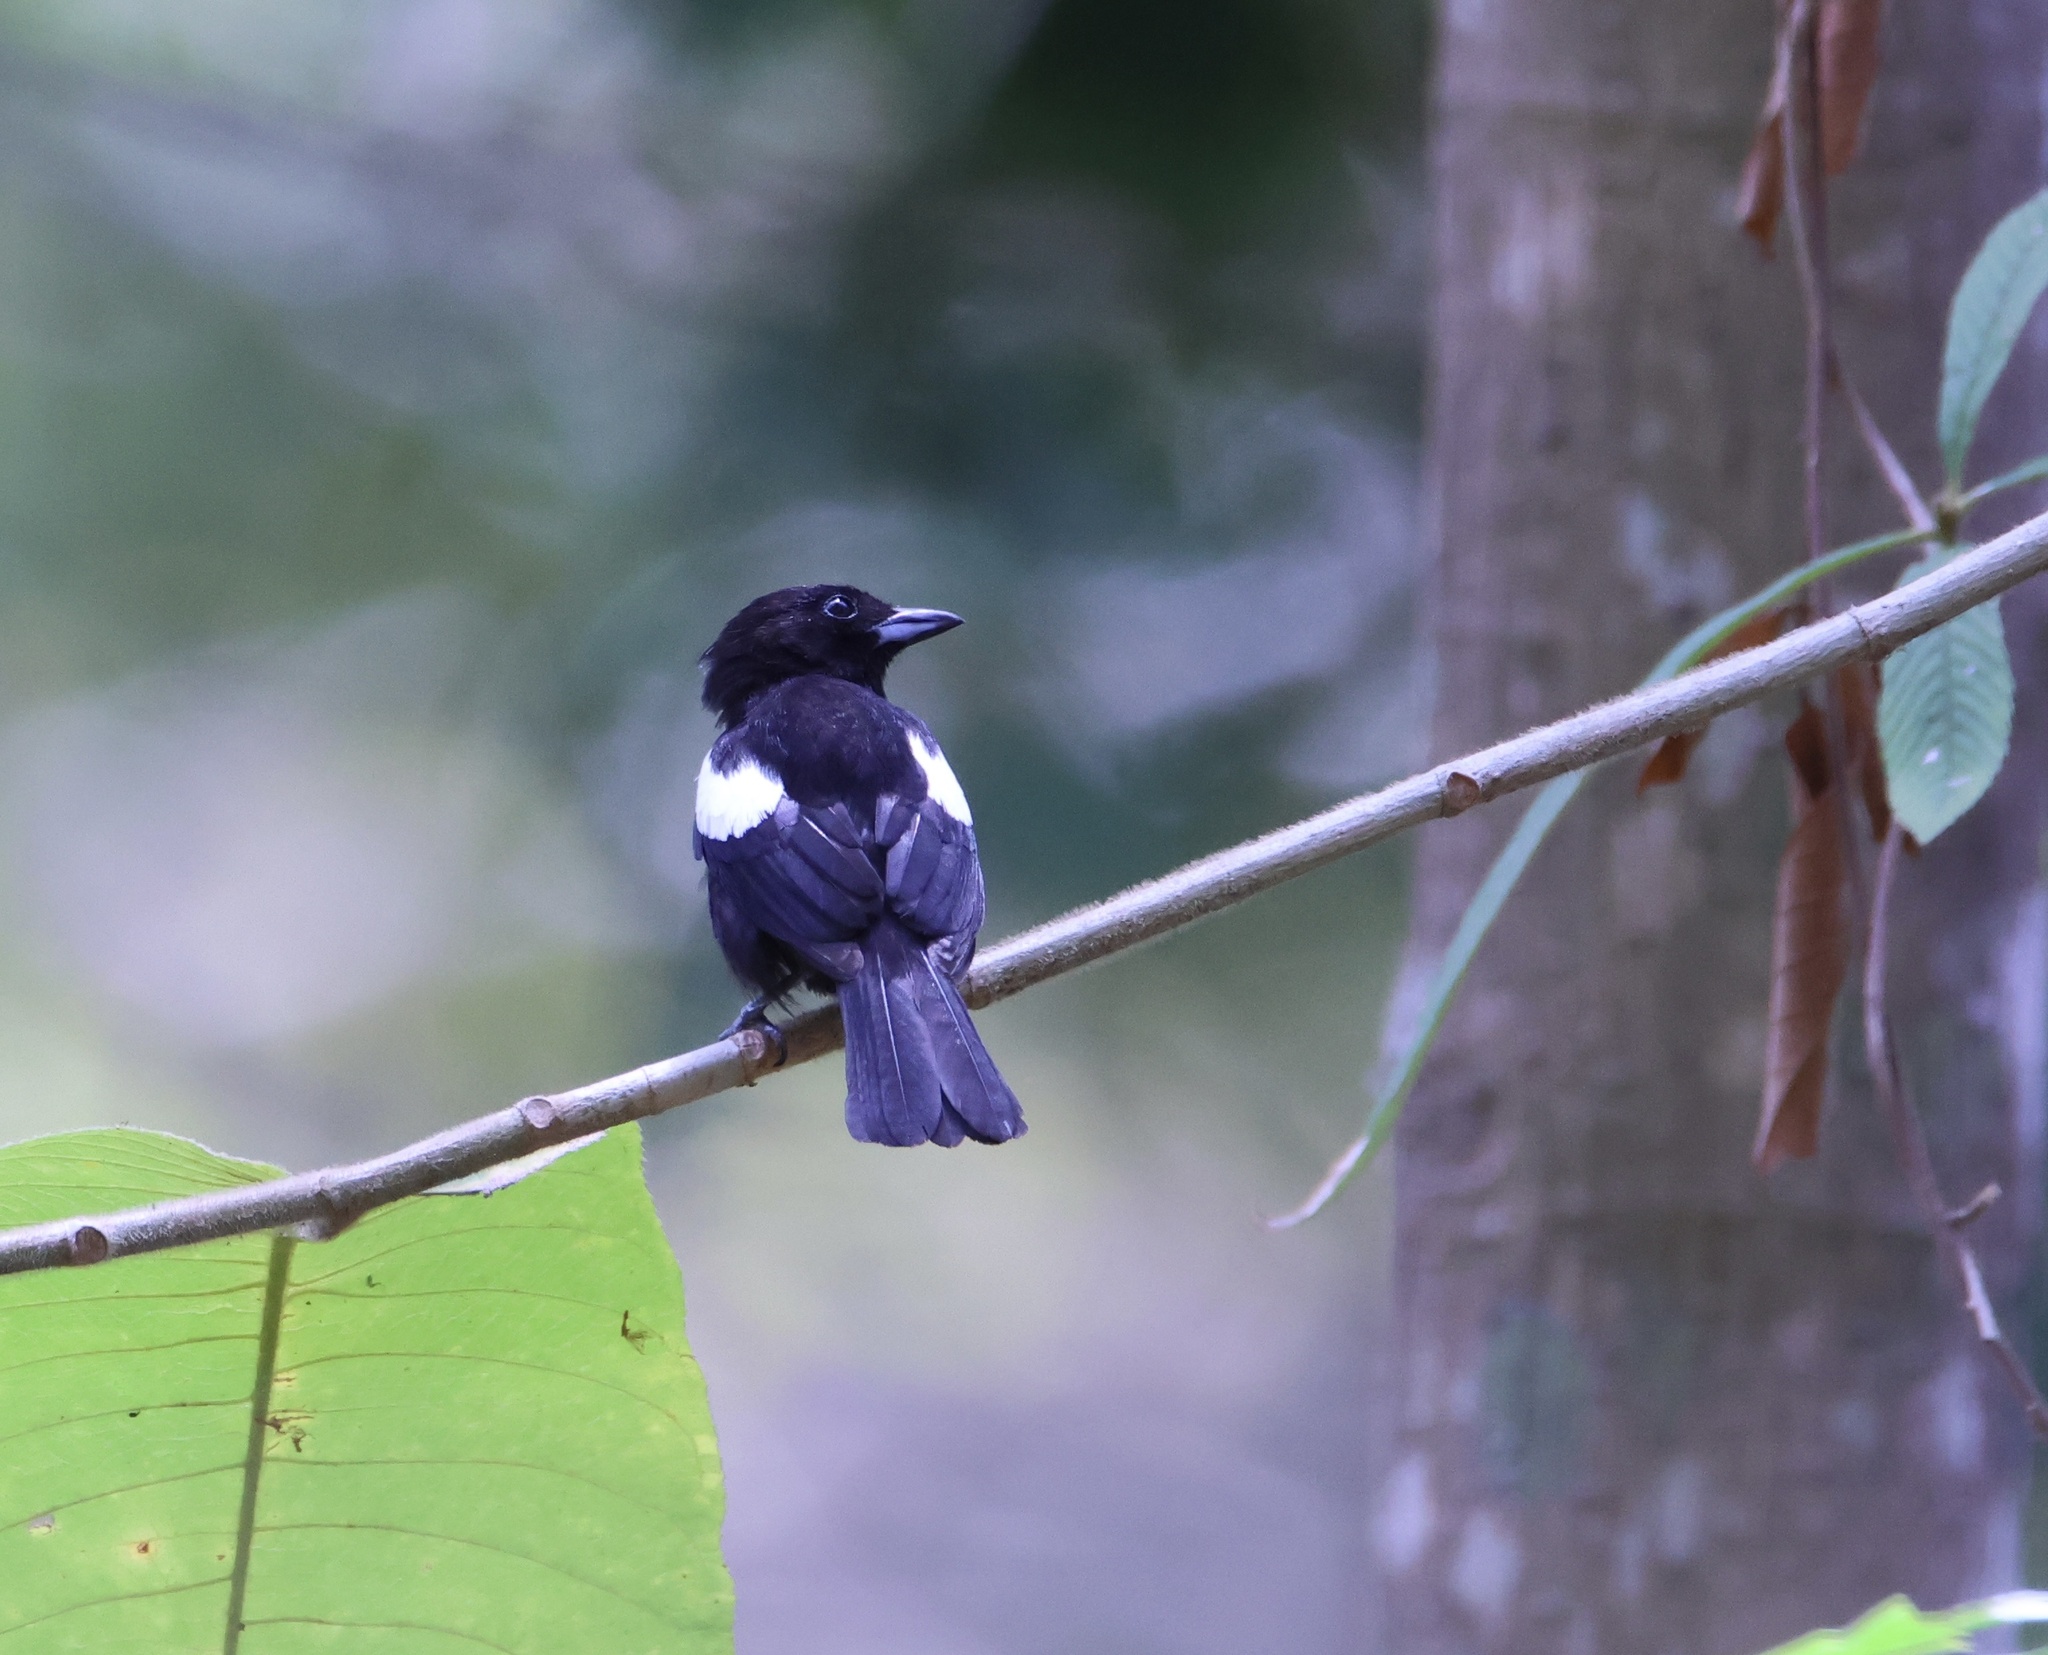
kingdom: Animalia
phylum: Chordata
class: Aves
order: Passeriformes
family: Thraupidae
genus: Loriotus
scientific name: Loriotus luctuosus
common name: White-shouldered tanager
